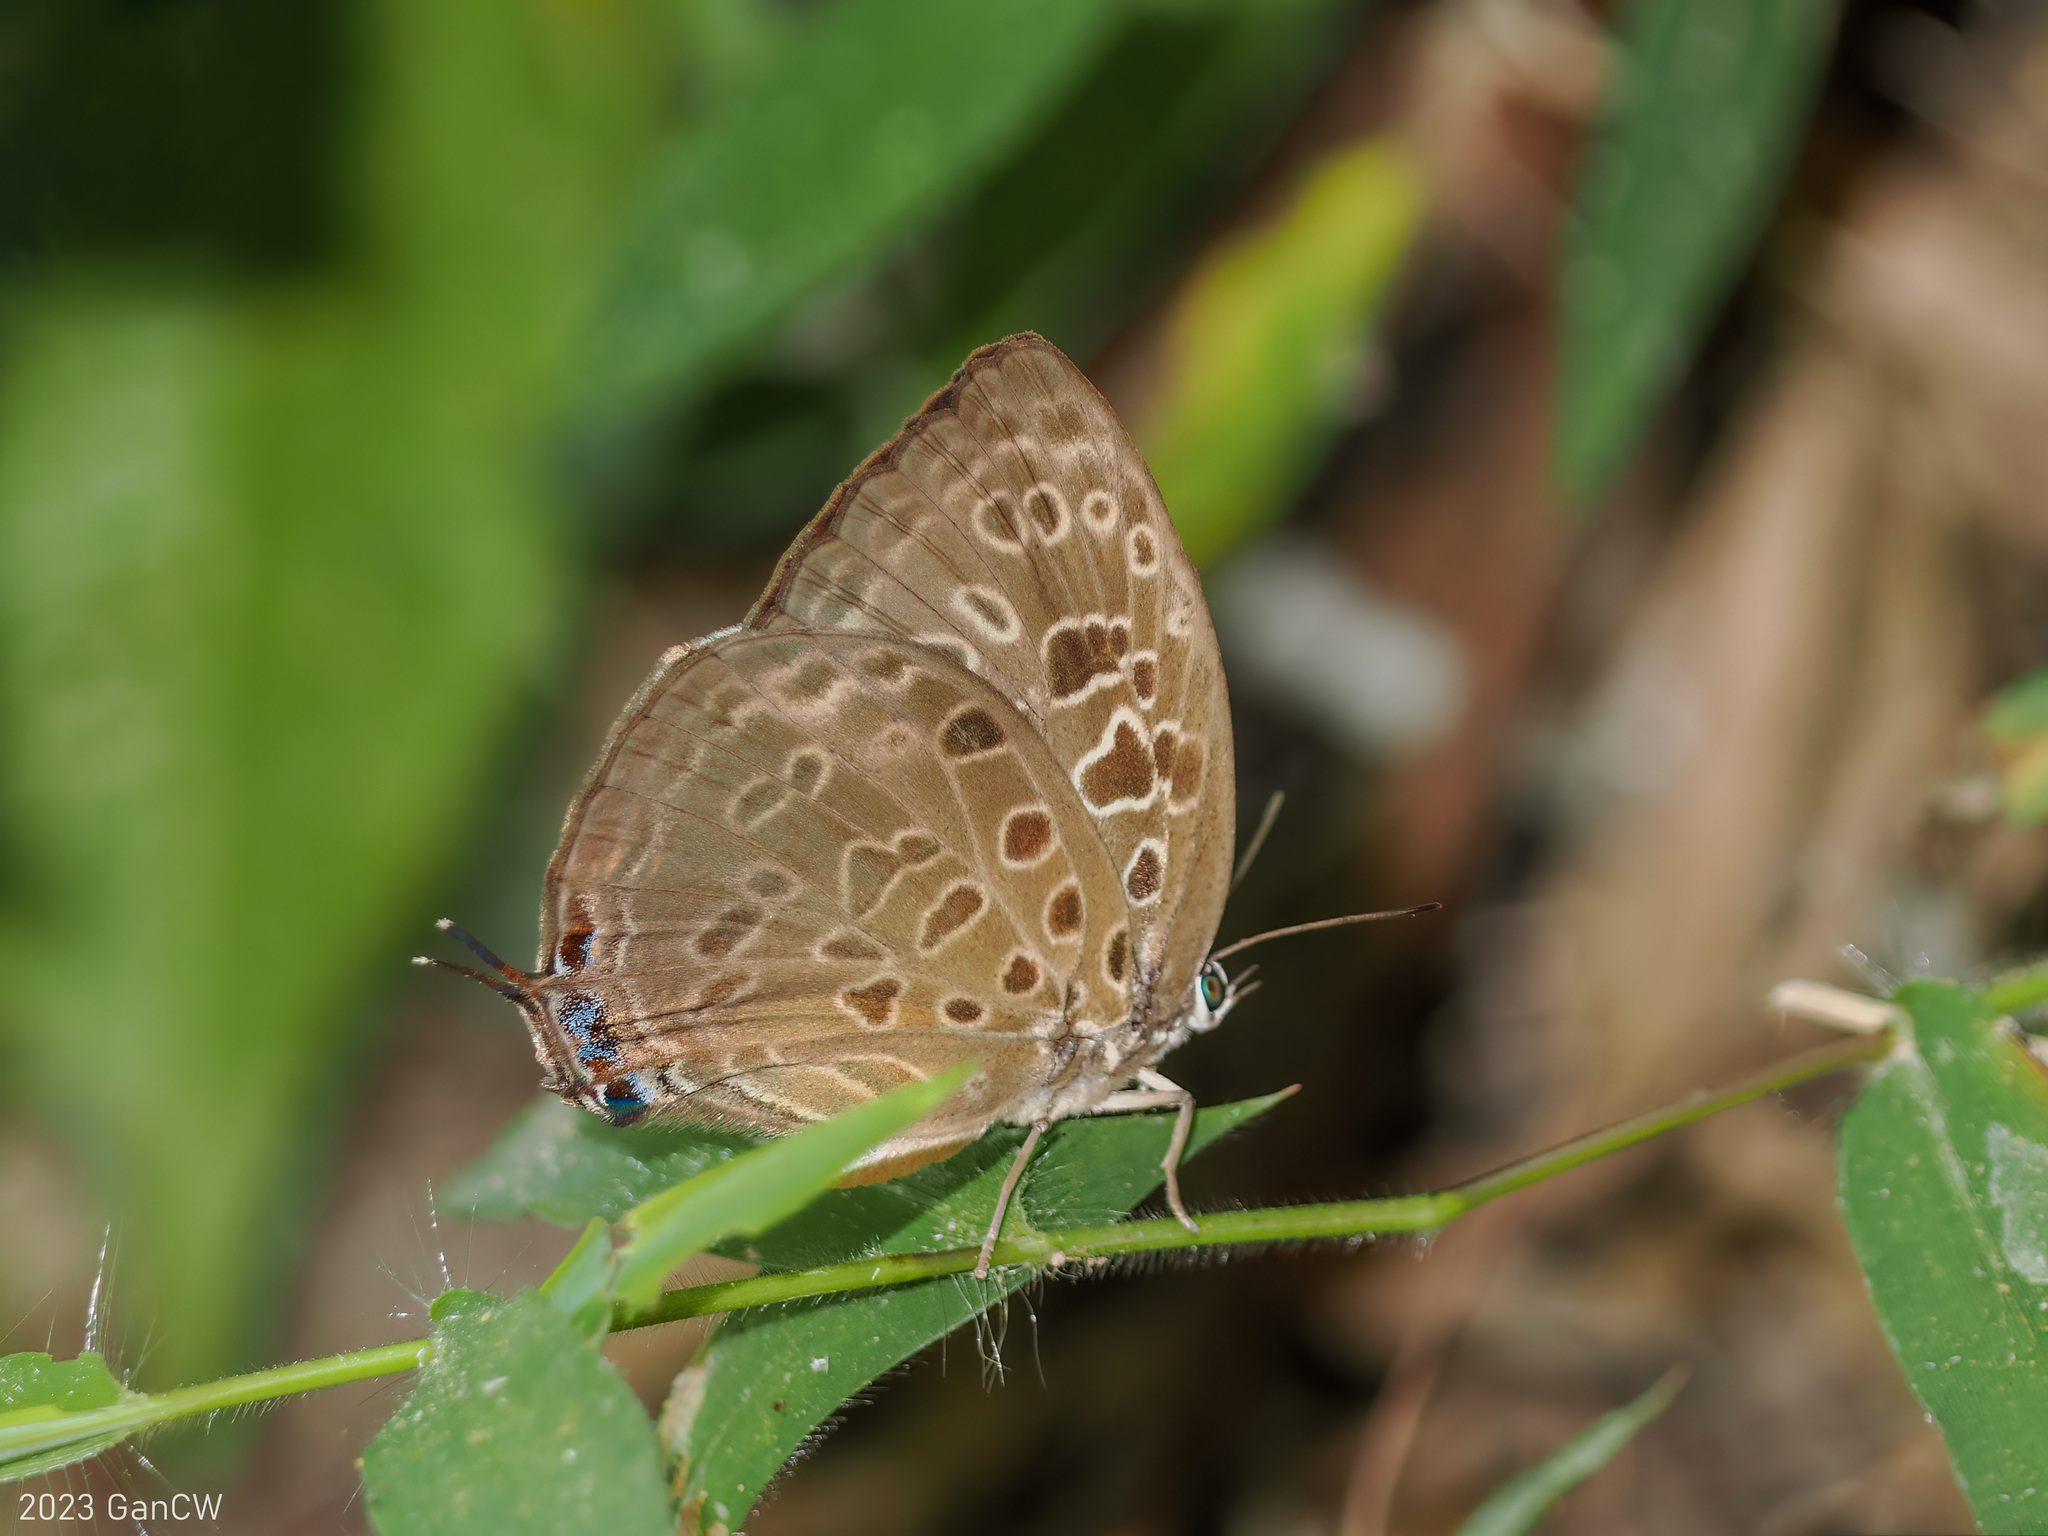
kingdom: Animalia
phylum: Arthropoda
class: Insecta
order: Lepidoptera
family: Lycaenidae
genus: Arhopala
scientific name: Arhopala anarte
